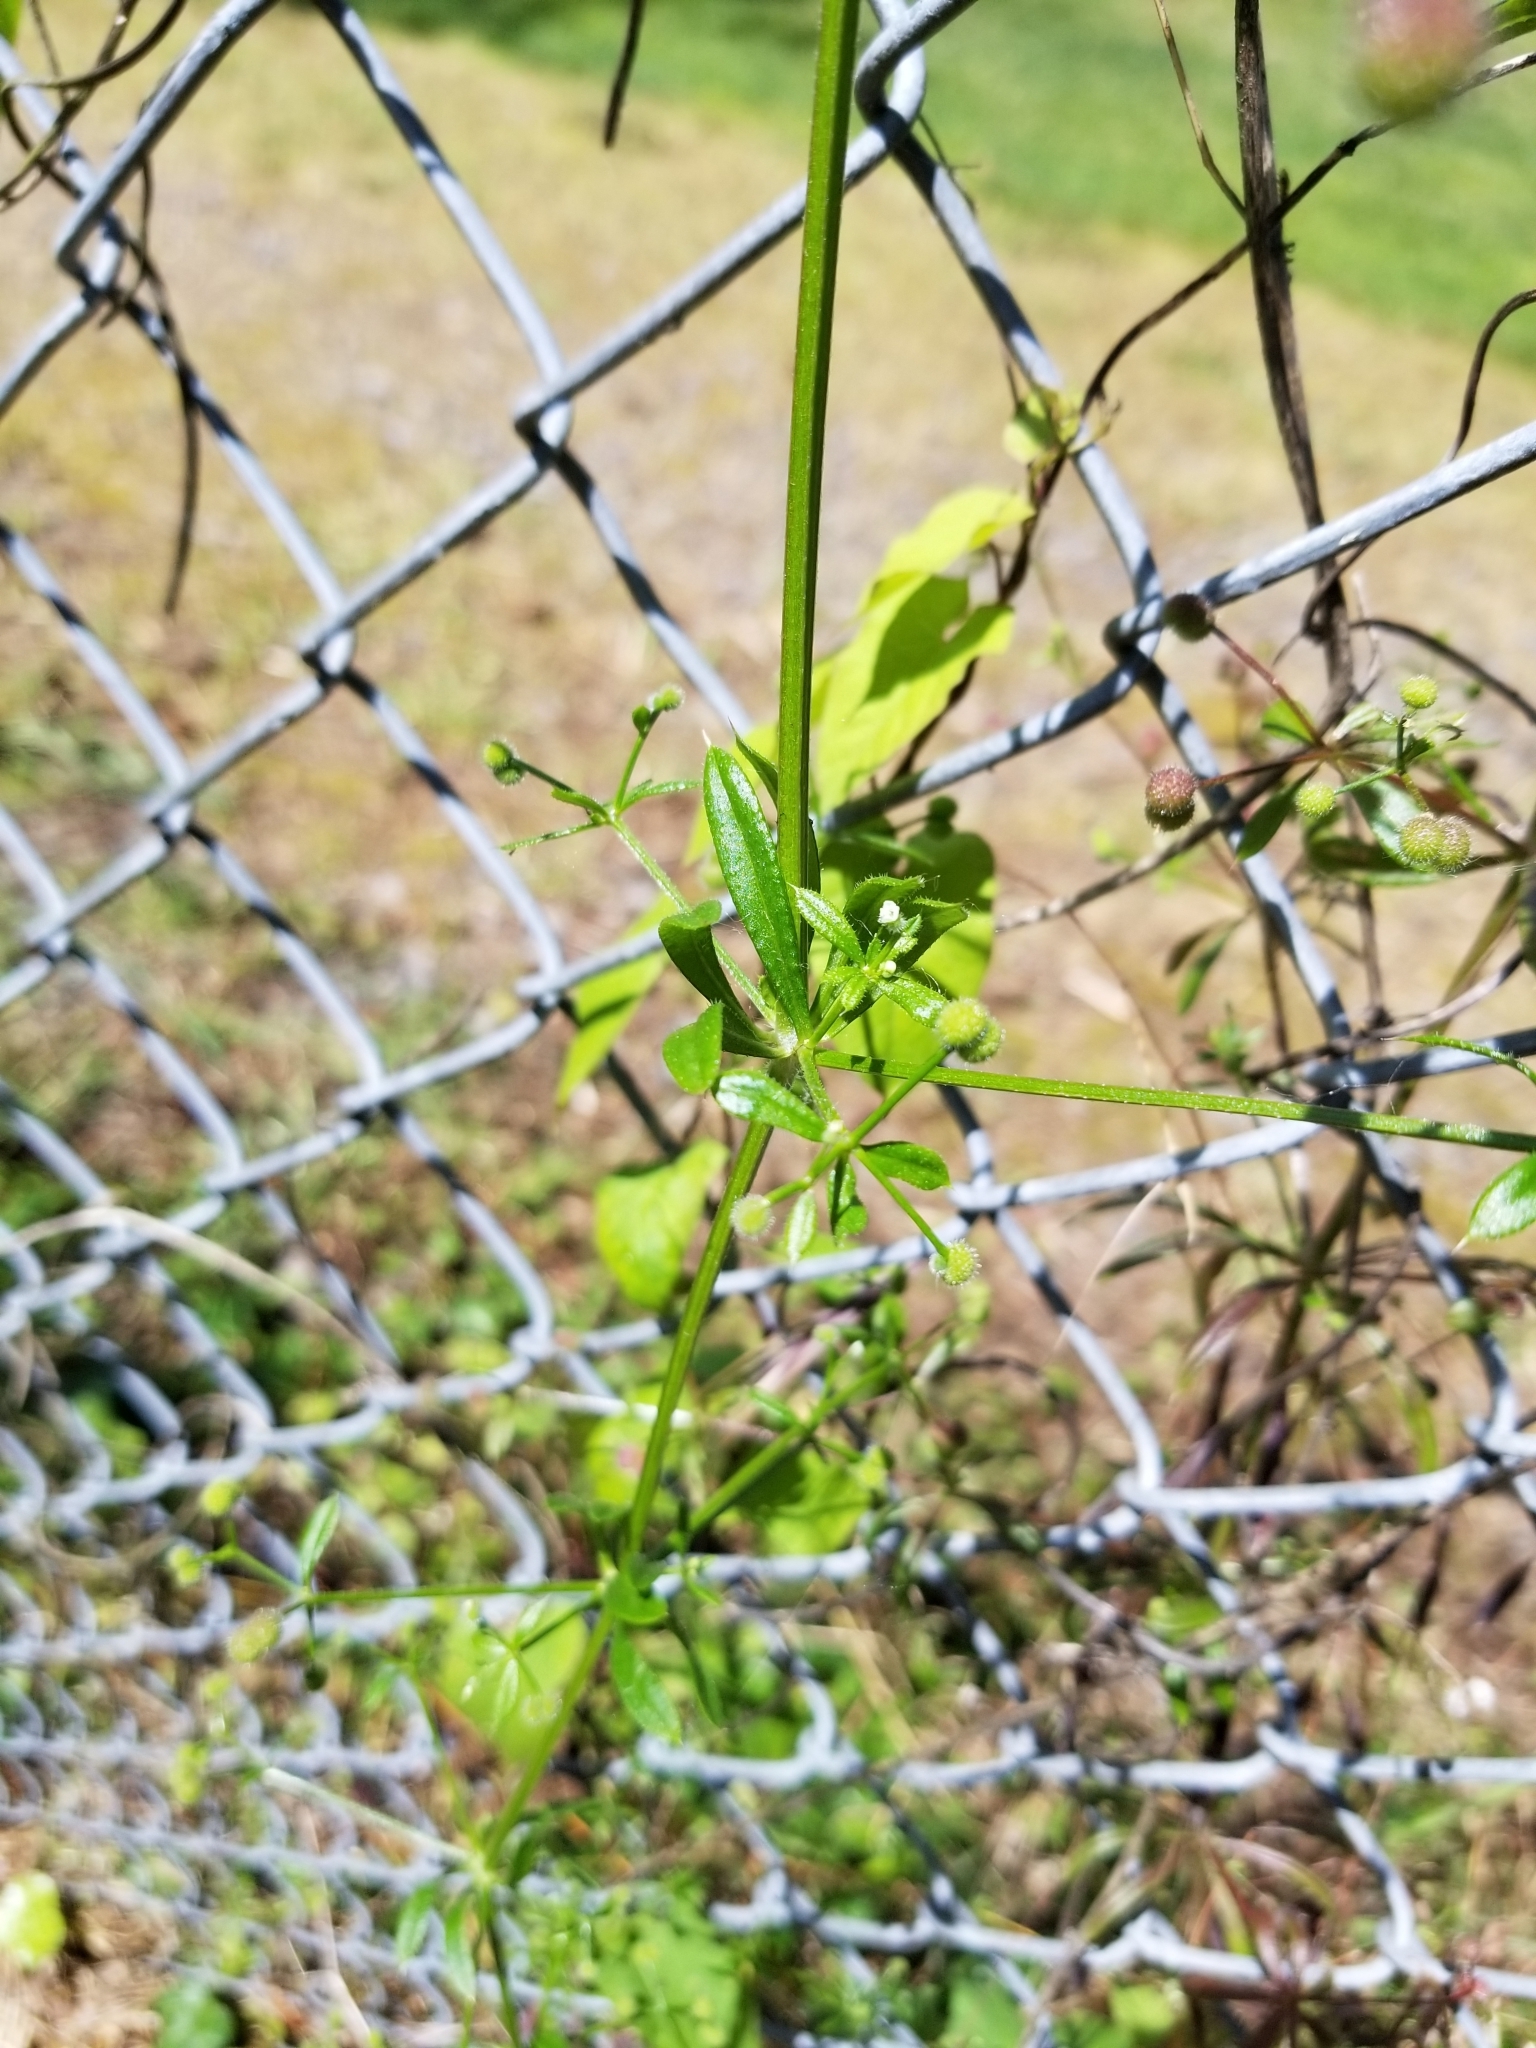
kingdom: Plantae
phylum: Tracheophyta
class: Magnoliopsida
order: Gentianales
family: Rubiaceae
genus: Galium
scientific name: Galium aparine
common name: Cleavers
